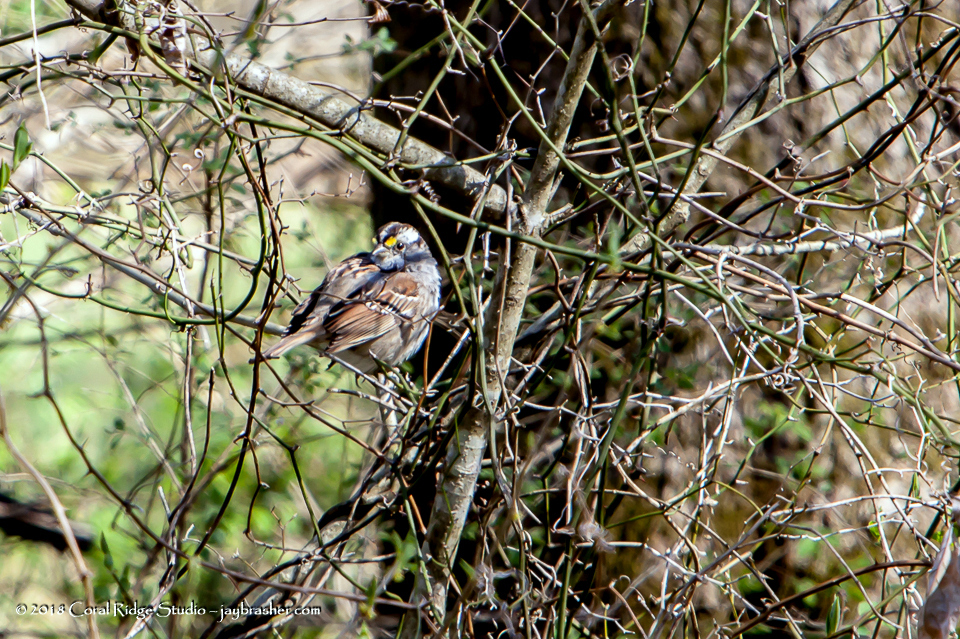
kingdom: Animalia
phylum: Chordata
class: Aves
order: Passeriformes
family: Passerellidae
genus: Zonotrichia
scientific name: Zonotrichia albicollis
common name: White-throated sparrow
